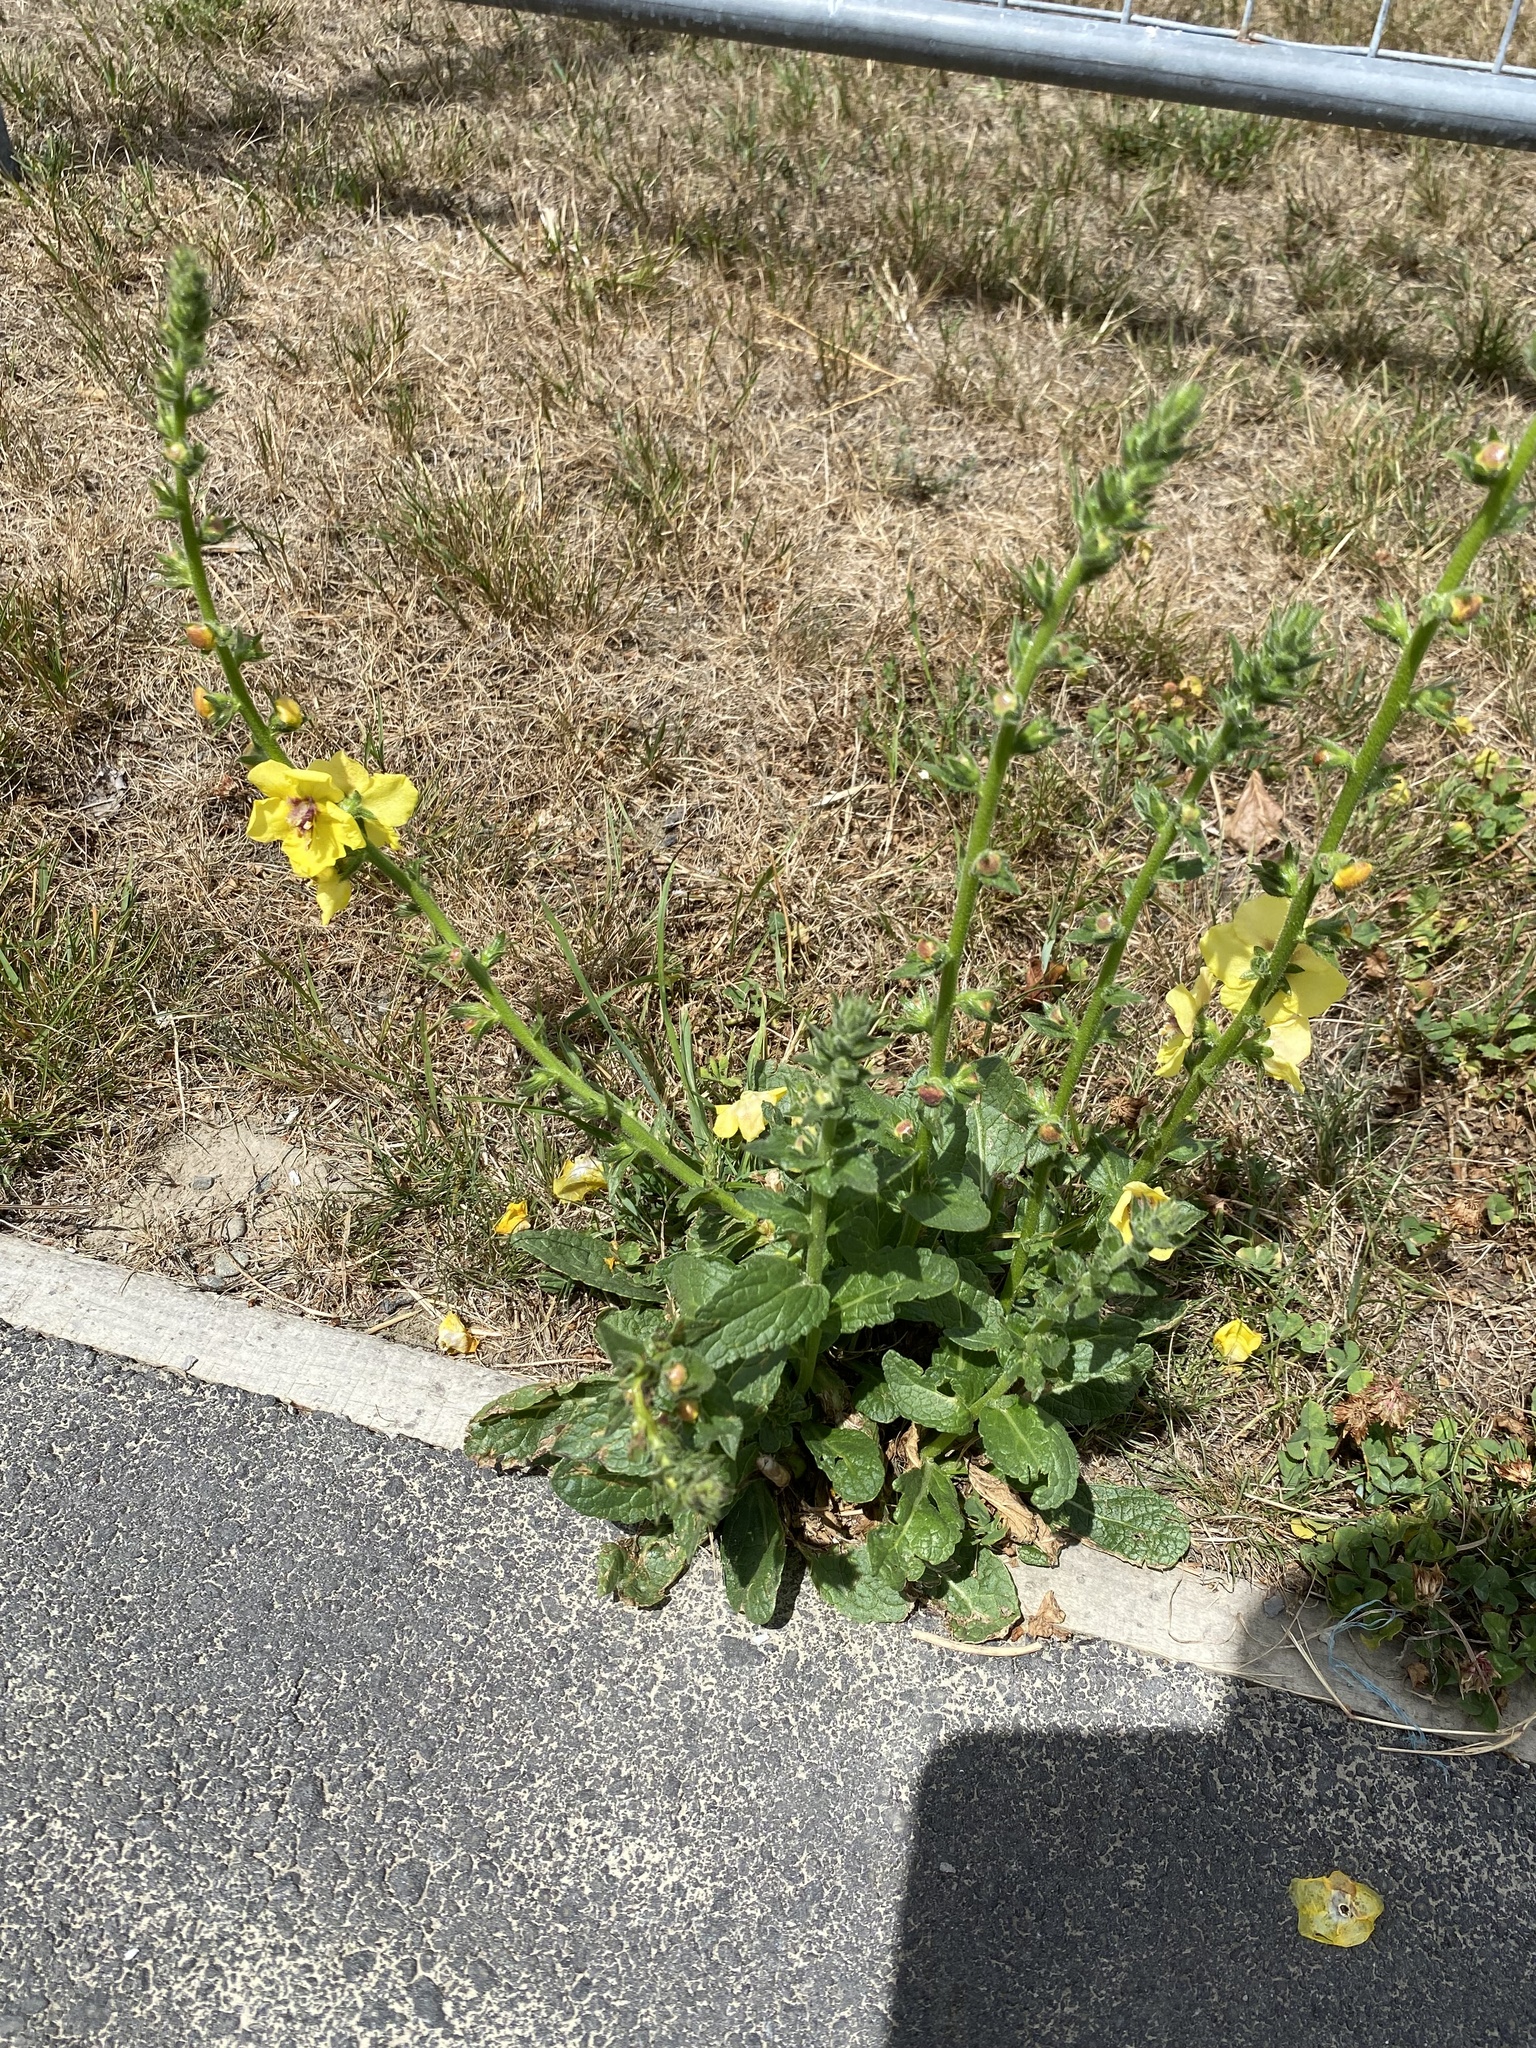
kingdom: Plantae
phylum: Tracheophyta
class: Magnoliopsida
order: Lamiales
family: Scrophulariaceae
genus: Verbascum
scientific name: Verbascum virgatum
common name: Twiggy mullein
